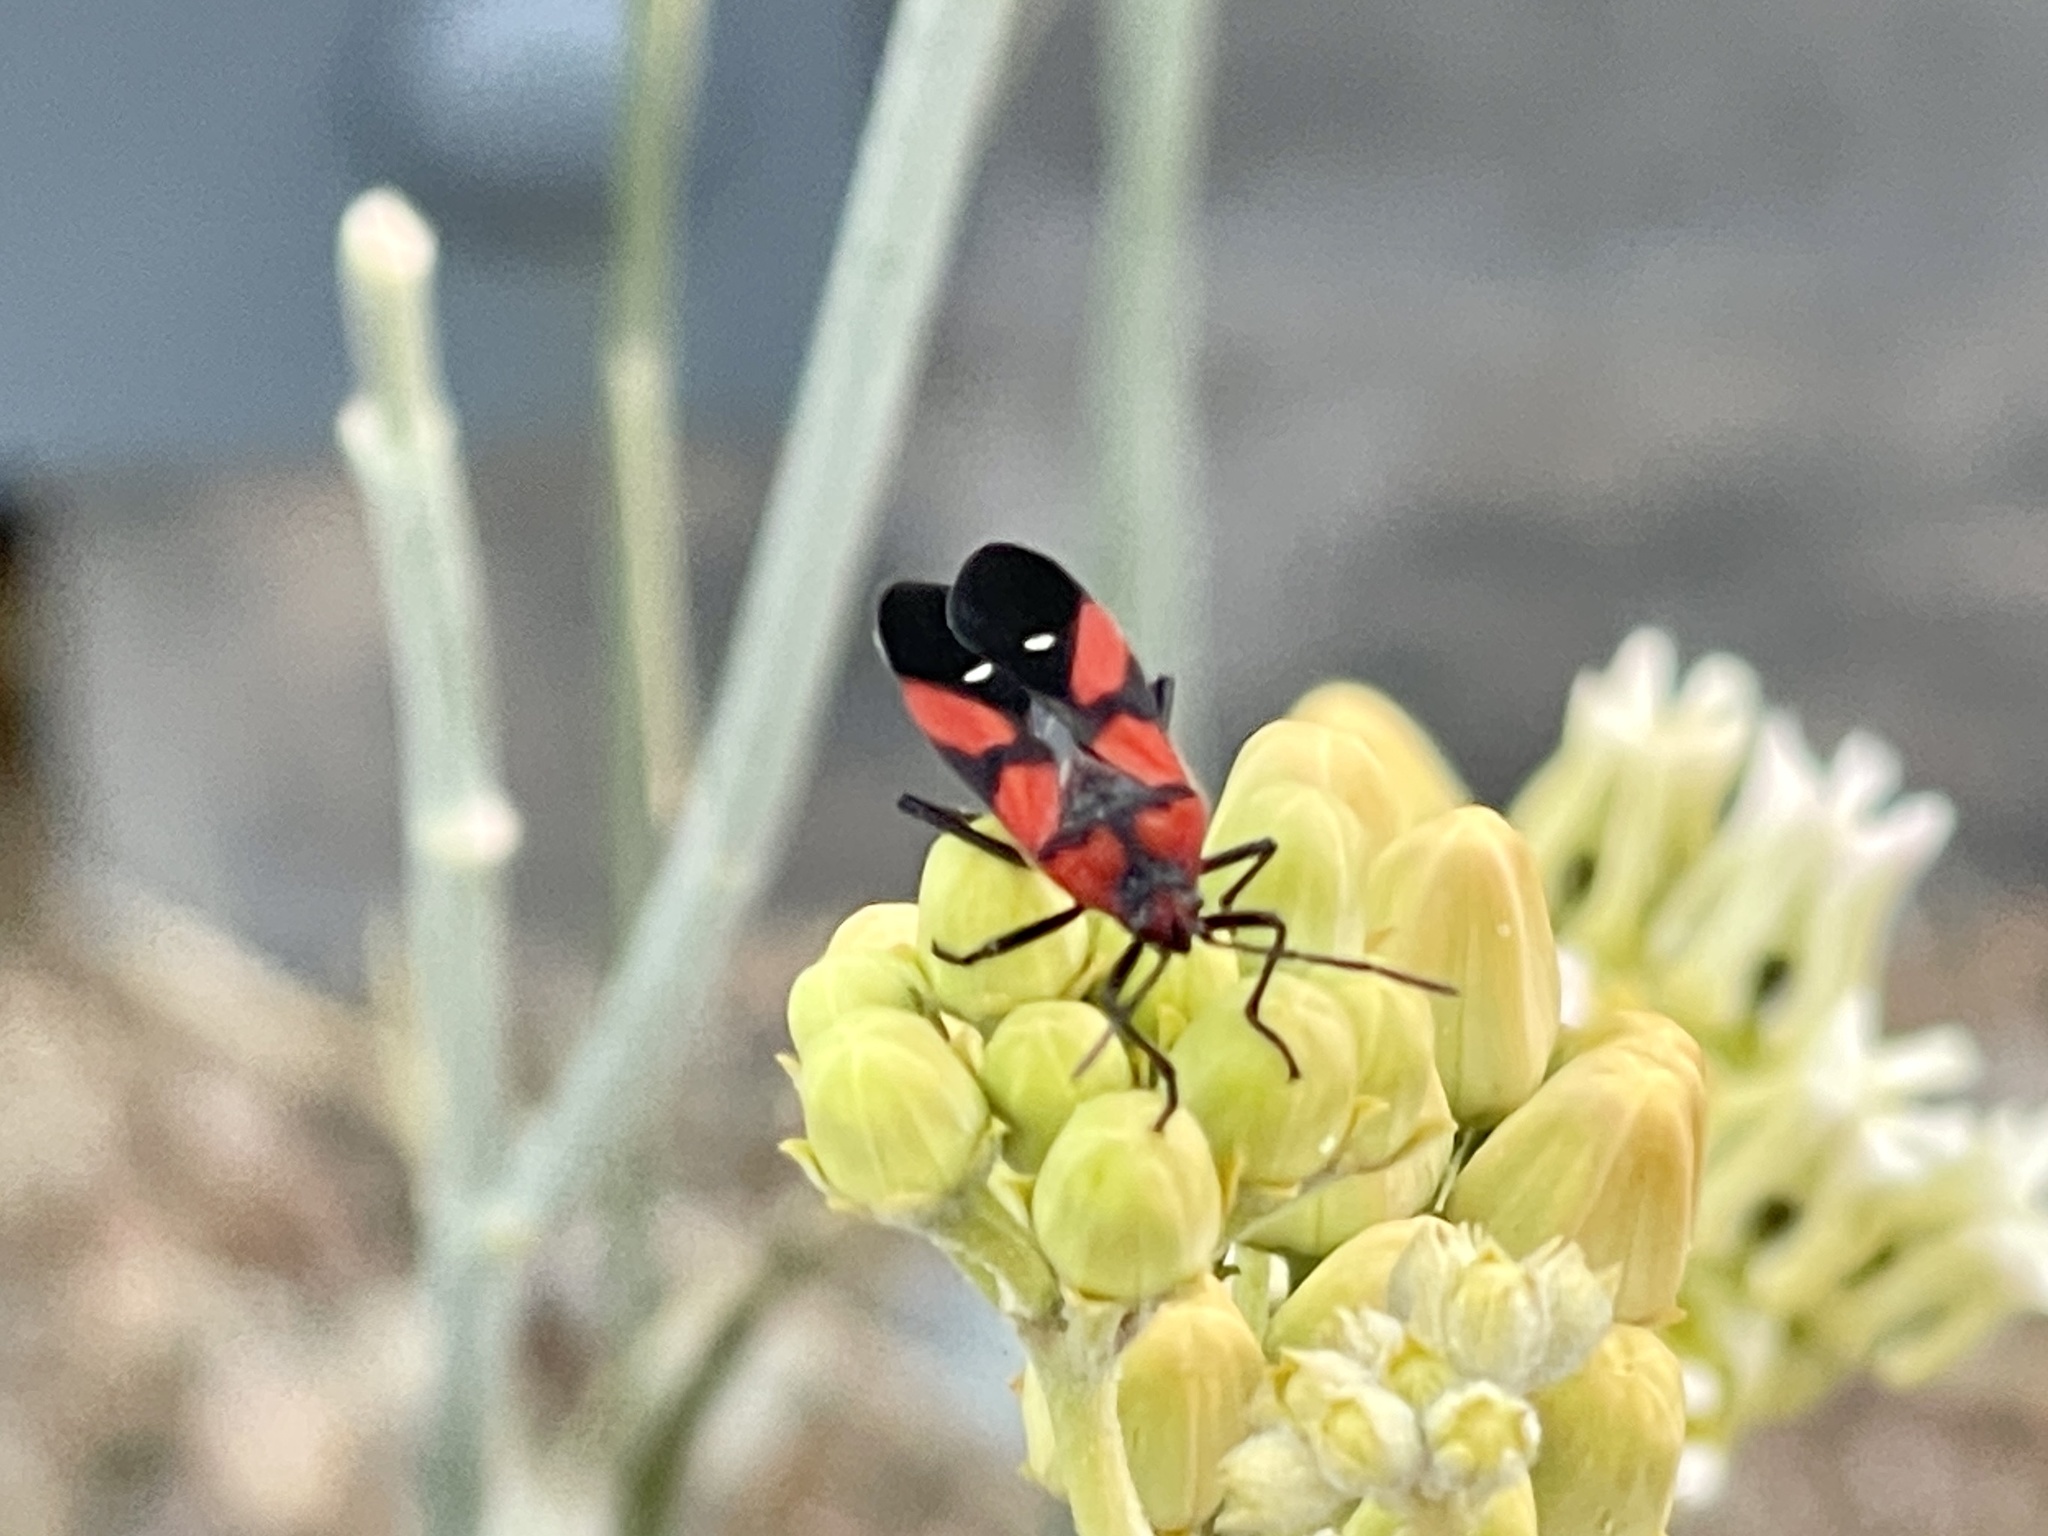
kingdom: Animalia
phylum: Arthropoda
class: Insecta
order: Hemiptera
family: Lygaeidae
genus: Oncopeltus
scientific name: Oncopeltus sanguinolentus
